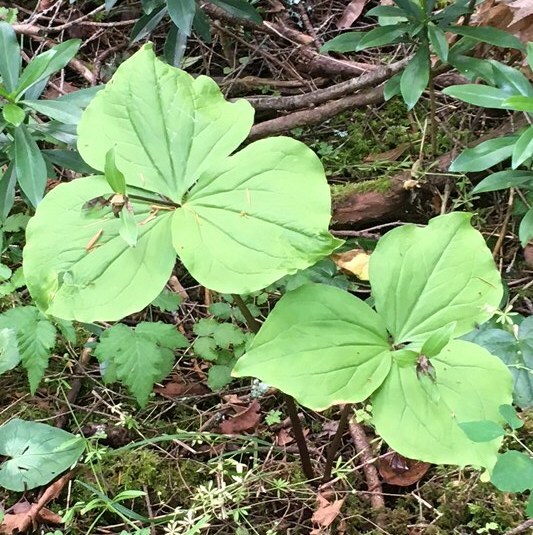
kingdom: Plantae
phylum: Tracheophyta
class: Liliopsida
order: Liliales
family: Melanthiaceae
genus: Trillium
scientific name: Trillium ovatum
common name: Pacific trillium
